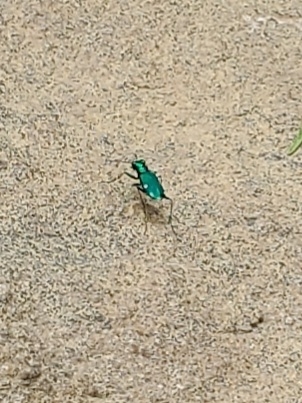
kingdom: Animalia
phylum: Arthropoda
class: Insecta
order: Coleoptera
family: Carabidae
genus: Cicindela
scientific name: Cicindela sexguttata
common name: Six-spotted tiger beetle
